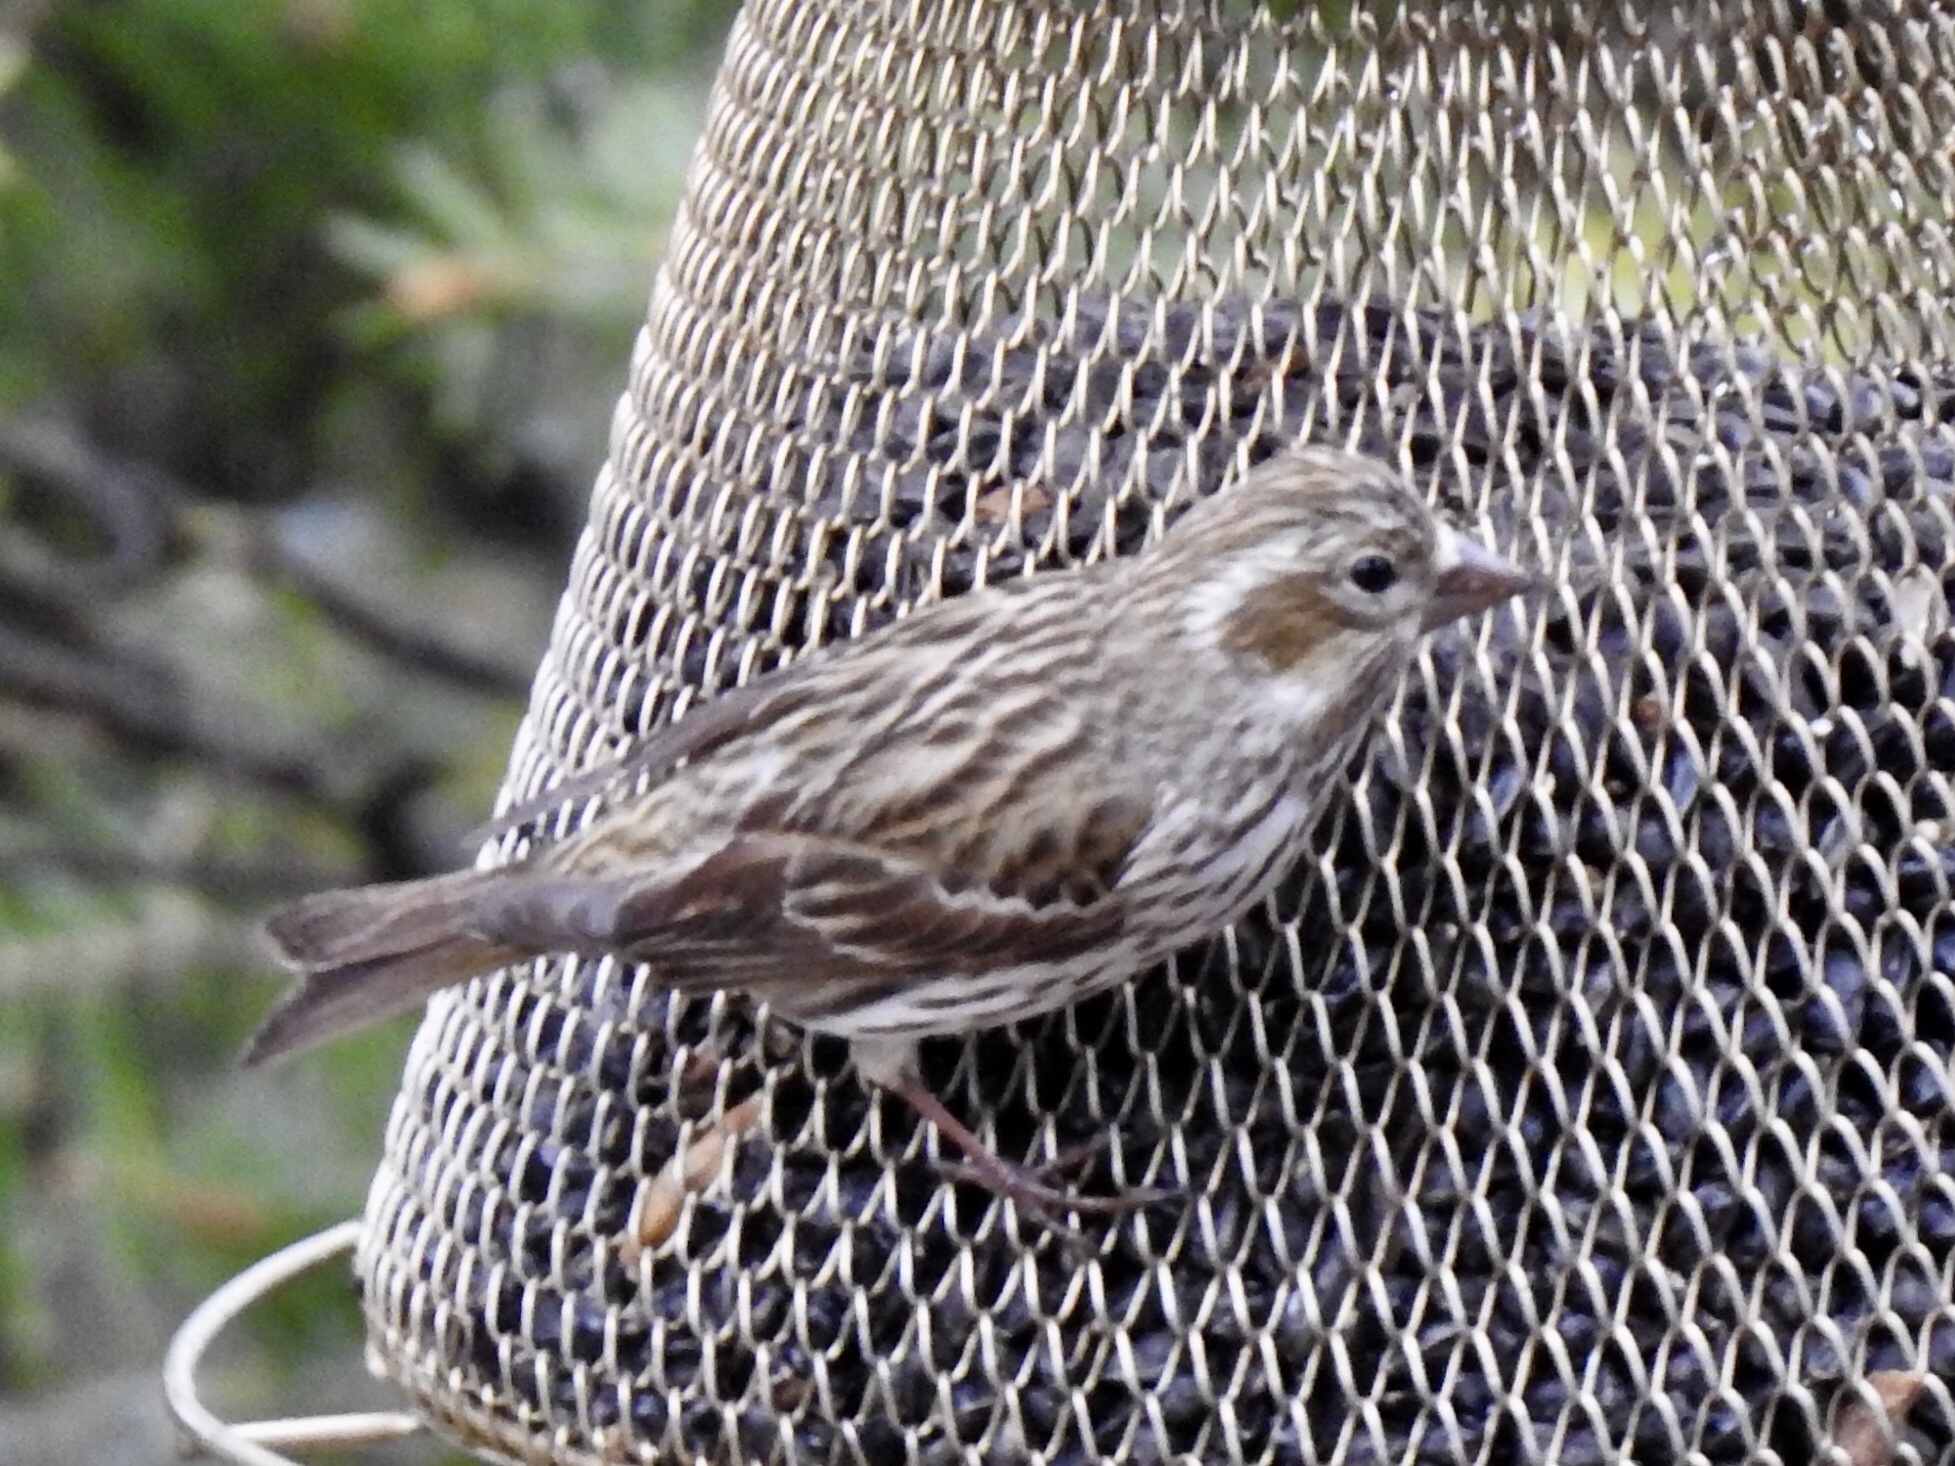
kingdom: Animalia
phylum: Chordata
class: Aves
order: Passeriformes
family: Fringillidae
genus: Haemorhous
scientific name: Haemorhous cassinii
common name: Cassin's finch
